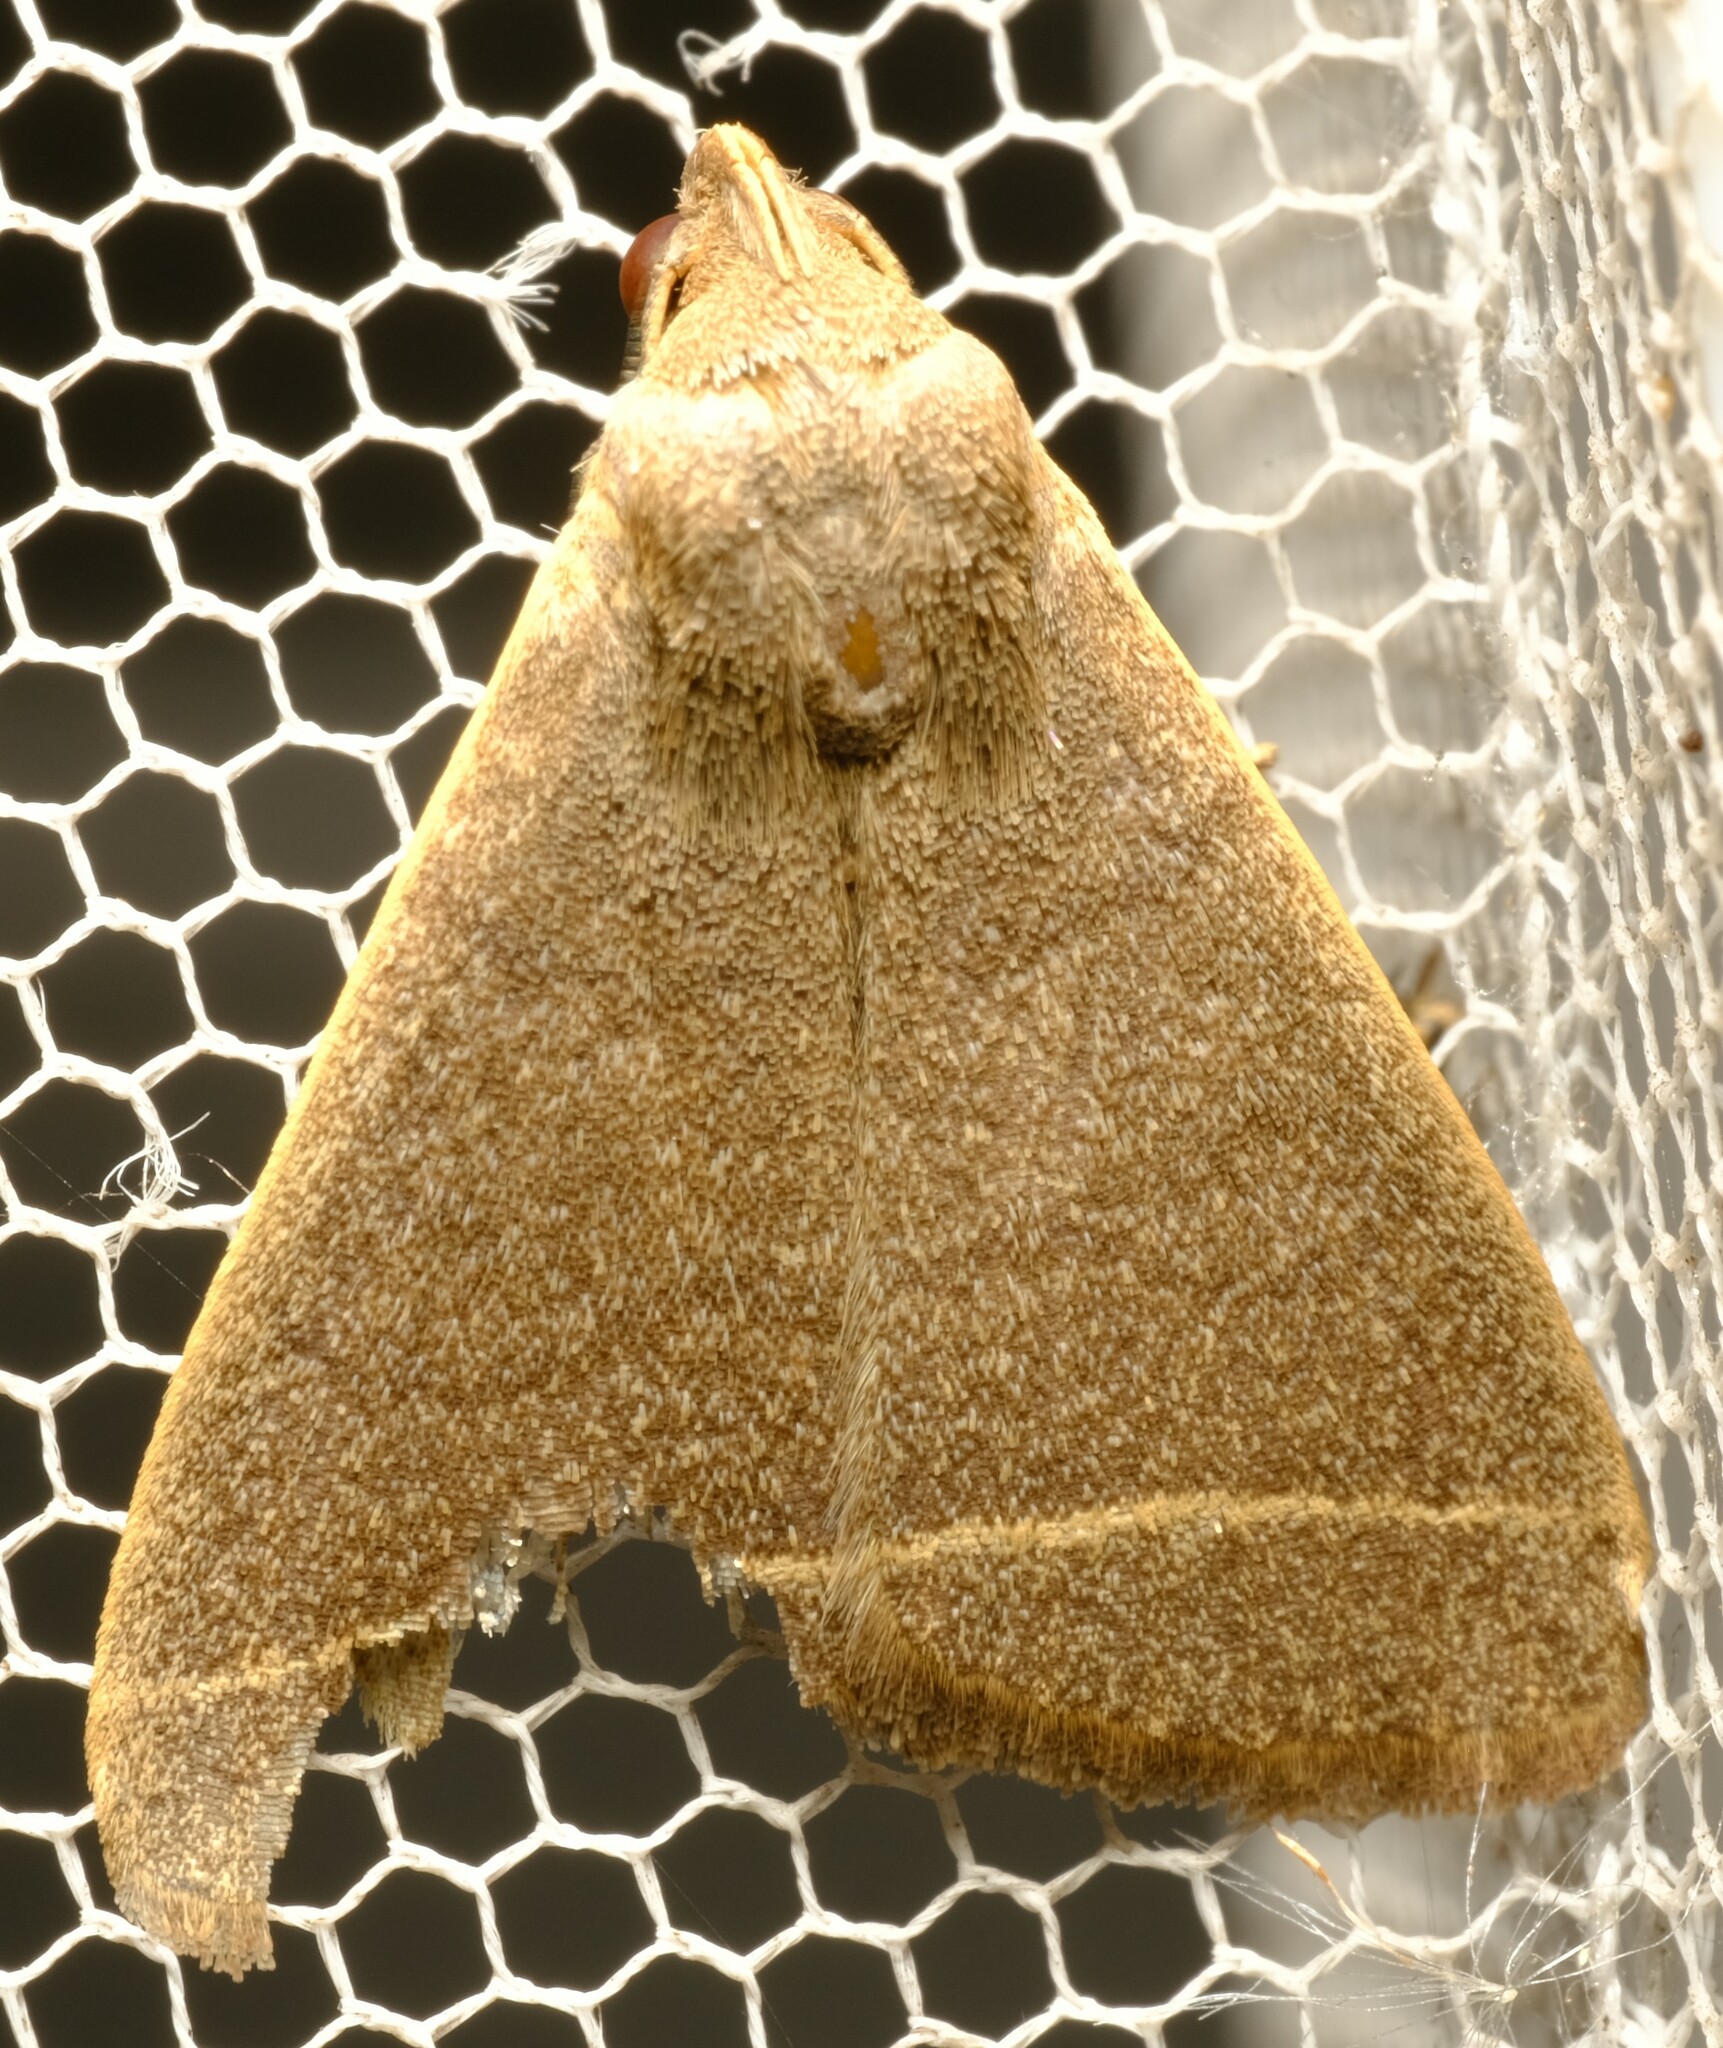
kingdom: Animalia
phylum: Arthropoda
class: Insecta
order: Lepidoptera
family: Erebidae
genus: Simplicia
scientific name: Simplicia cornicalis
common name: Tiki hut litter moth
